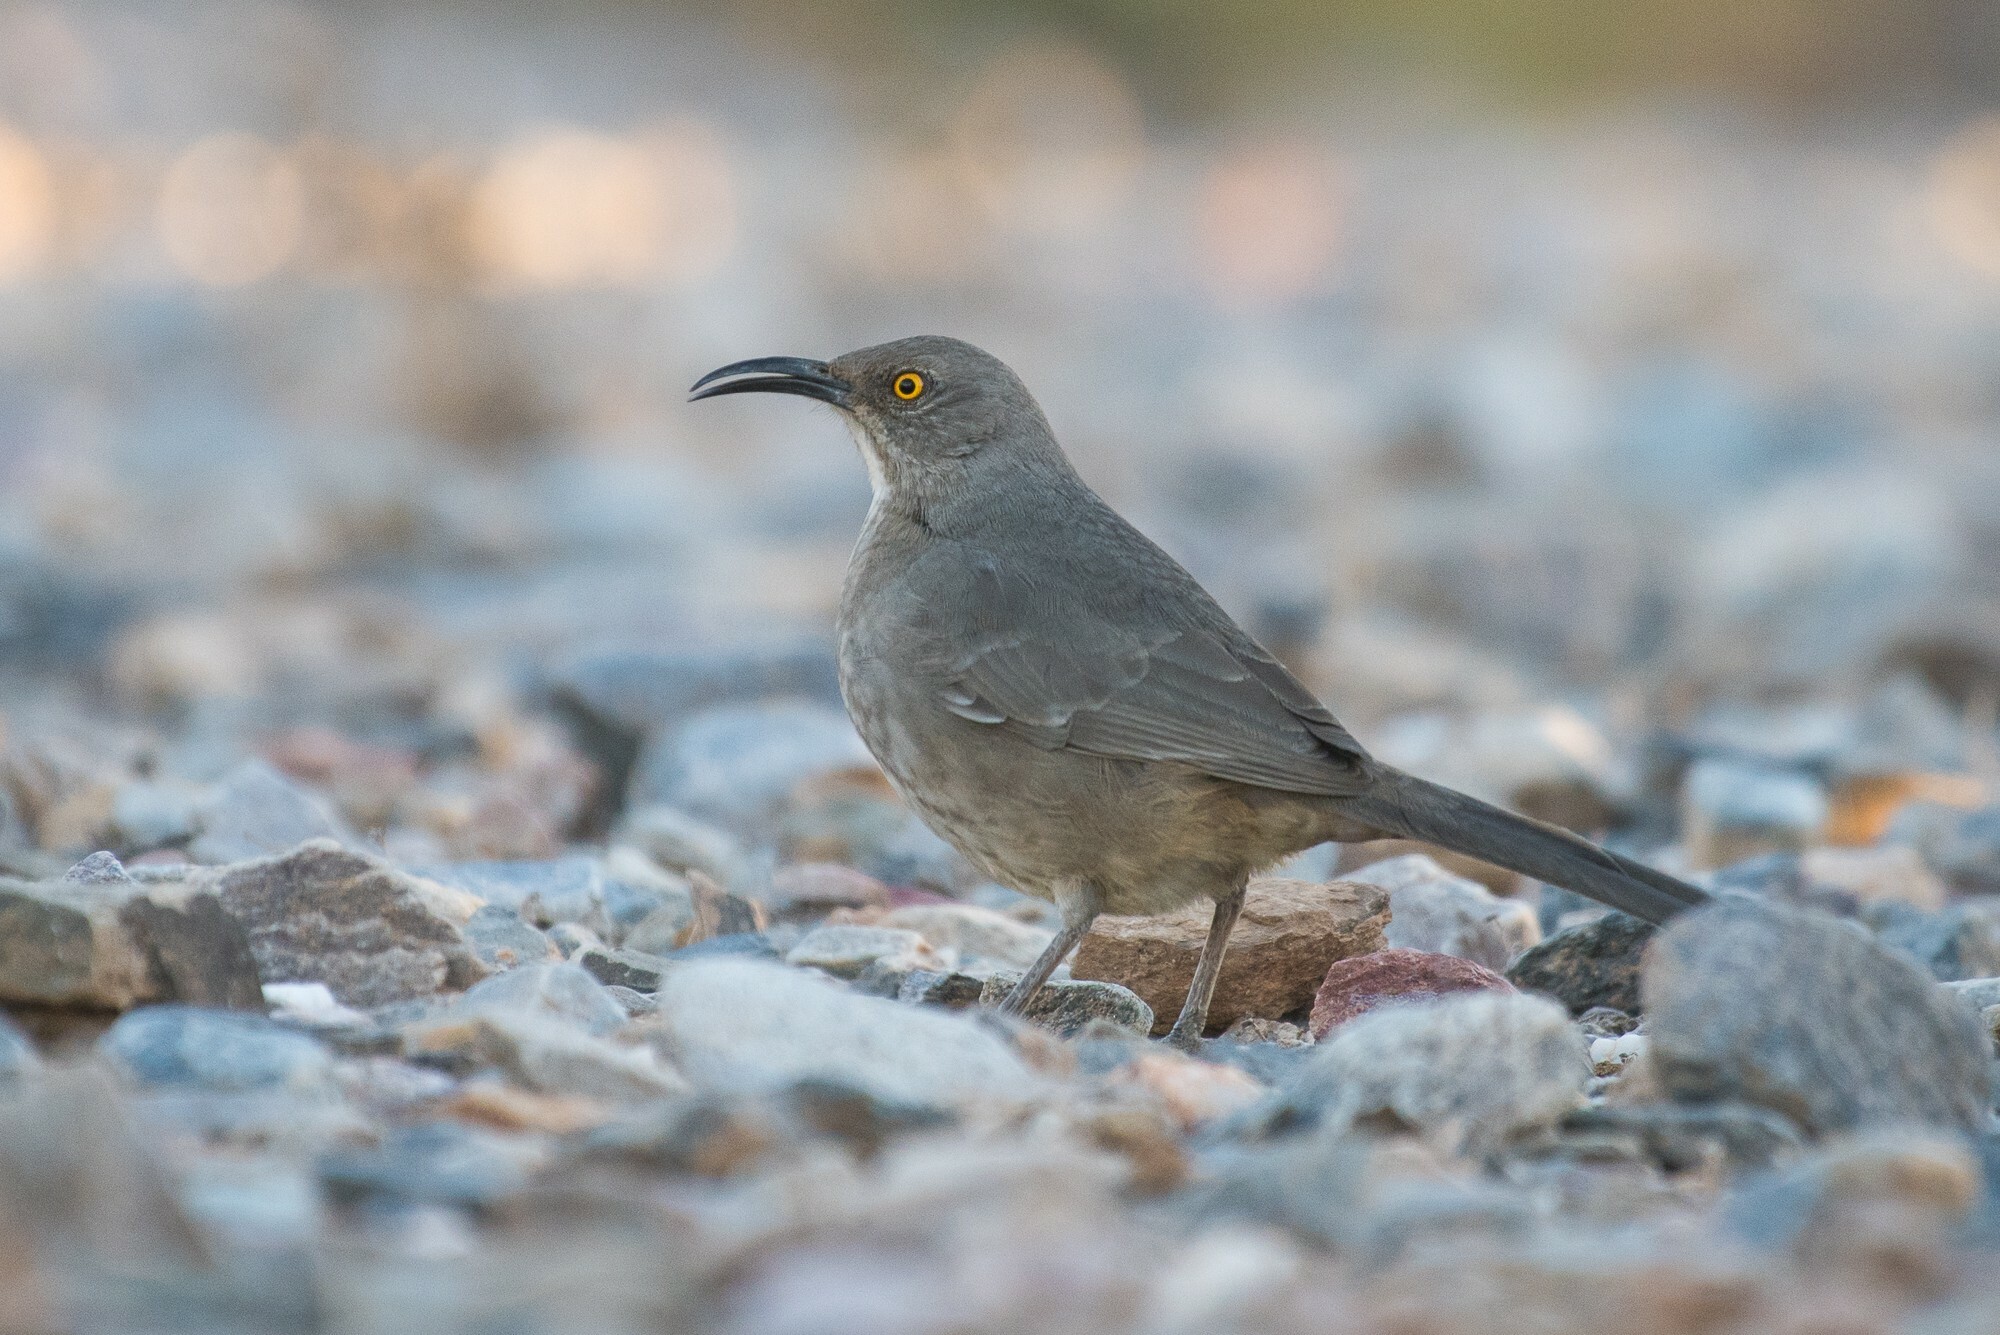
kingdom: Animalia
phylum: Chordata
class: Aves
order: Passeriformes
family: Mimidae
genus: Toxostoma
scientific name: Toxostoma curvirostre
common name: Curve-billed thrasher
